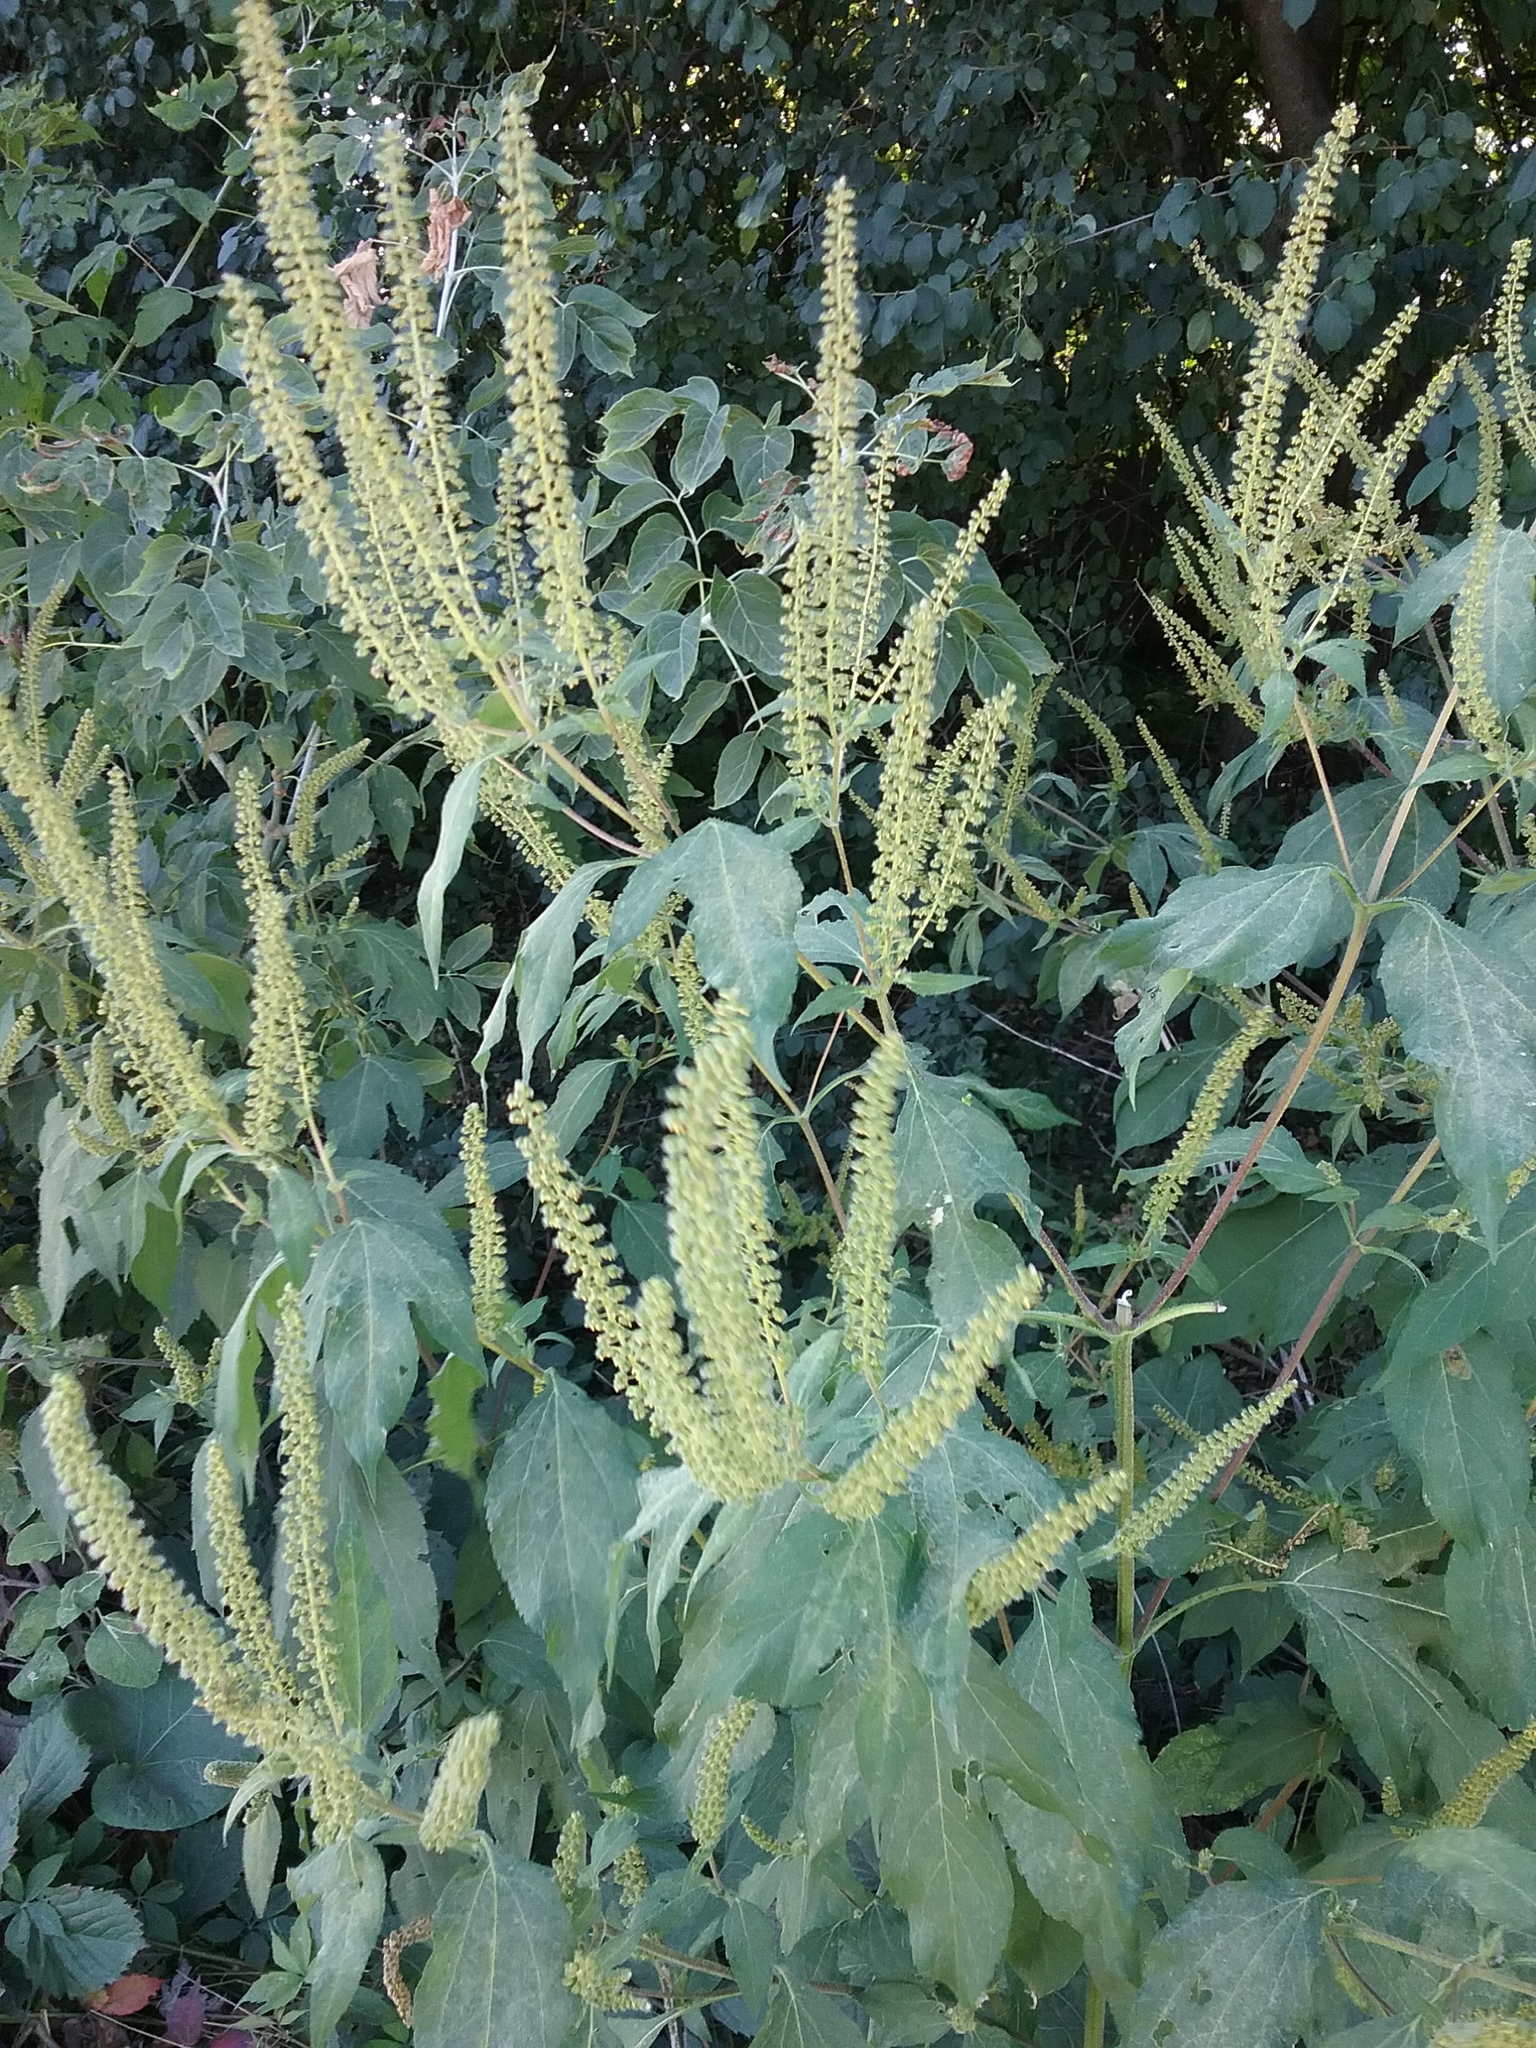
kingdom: Plantae
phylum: Tracheophyta
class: Magnoliopsida
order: Asterales
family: Asteraceae
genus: Ambrosia
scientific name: Ambrosia trifida
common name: Giant ragweed
